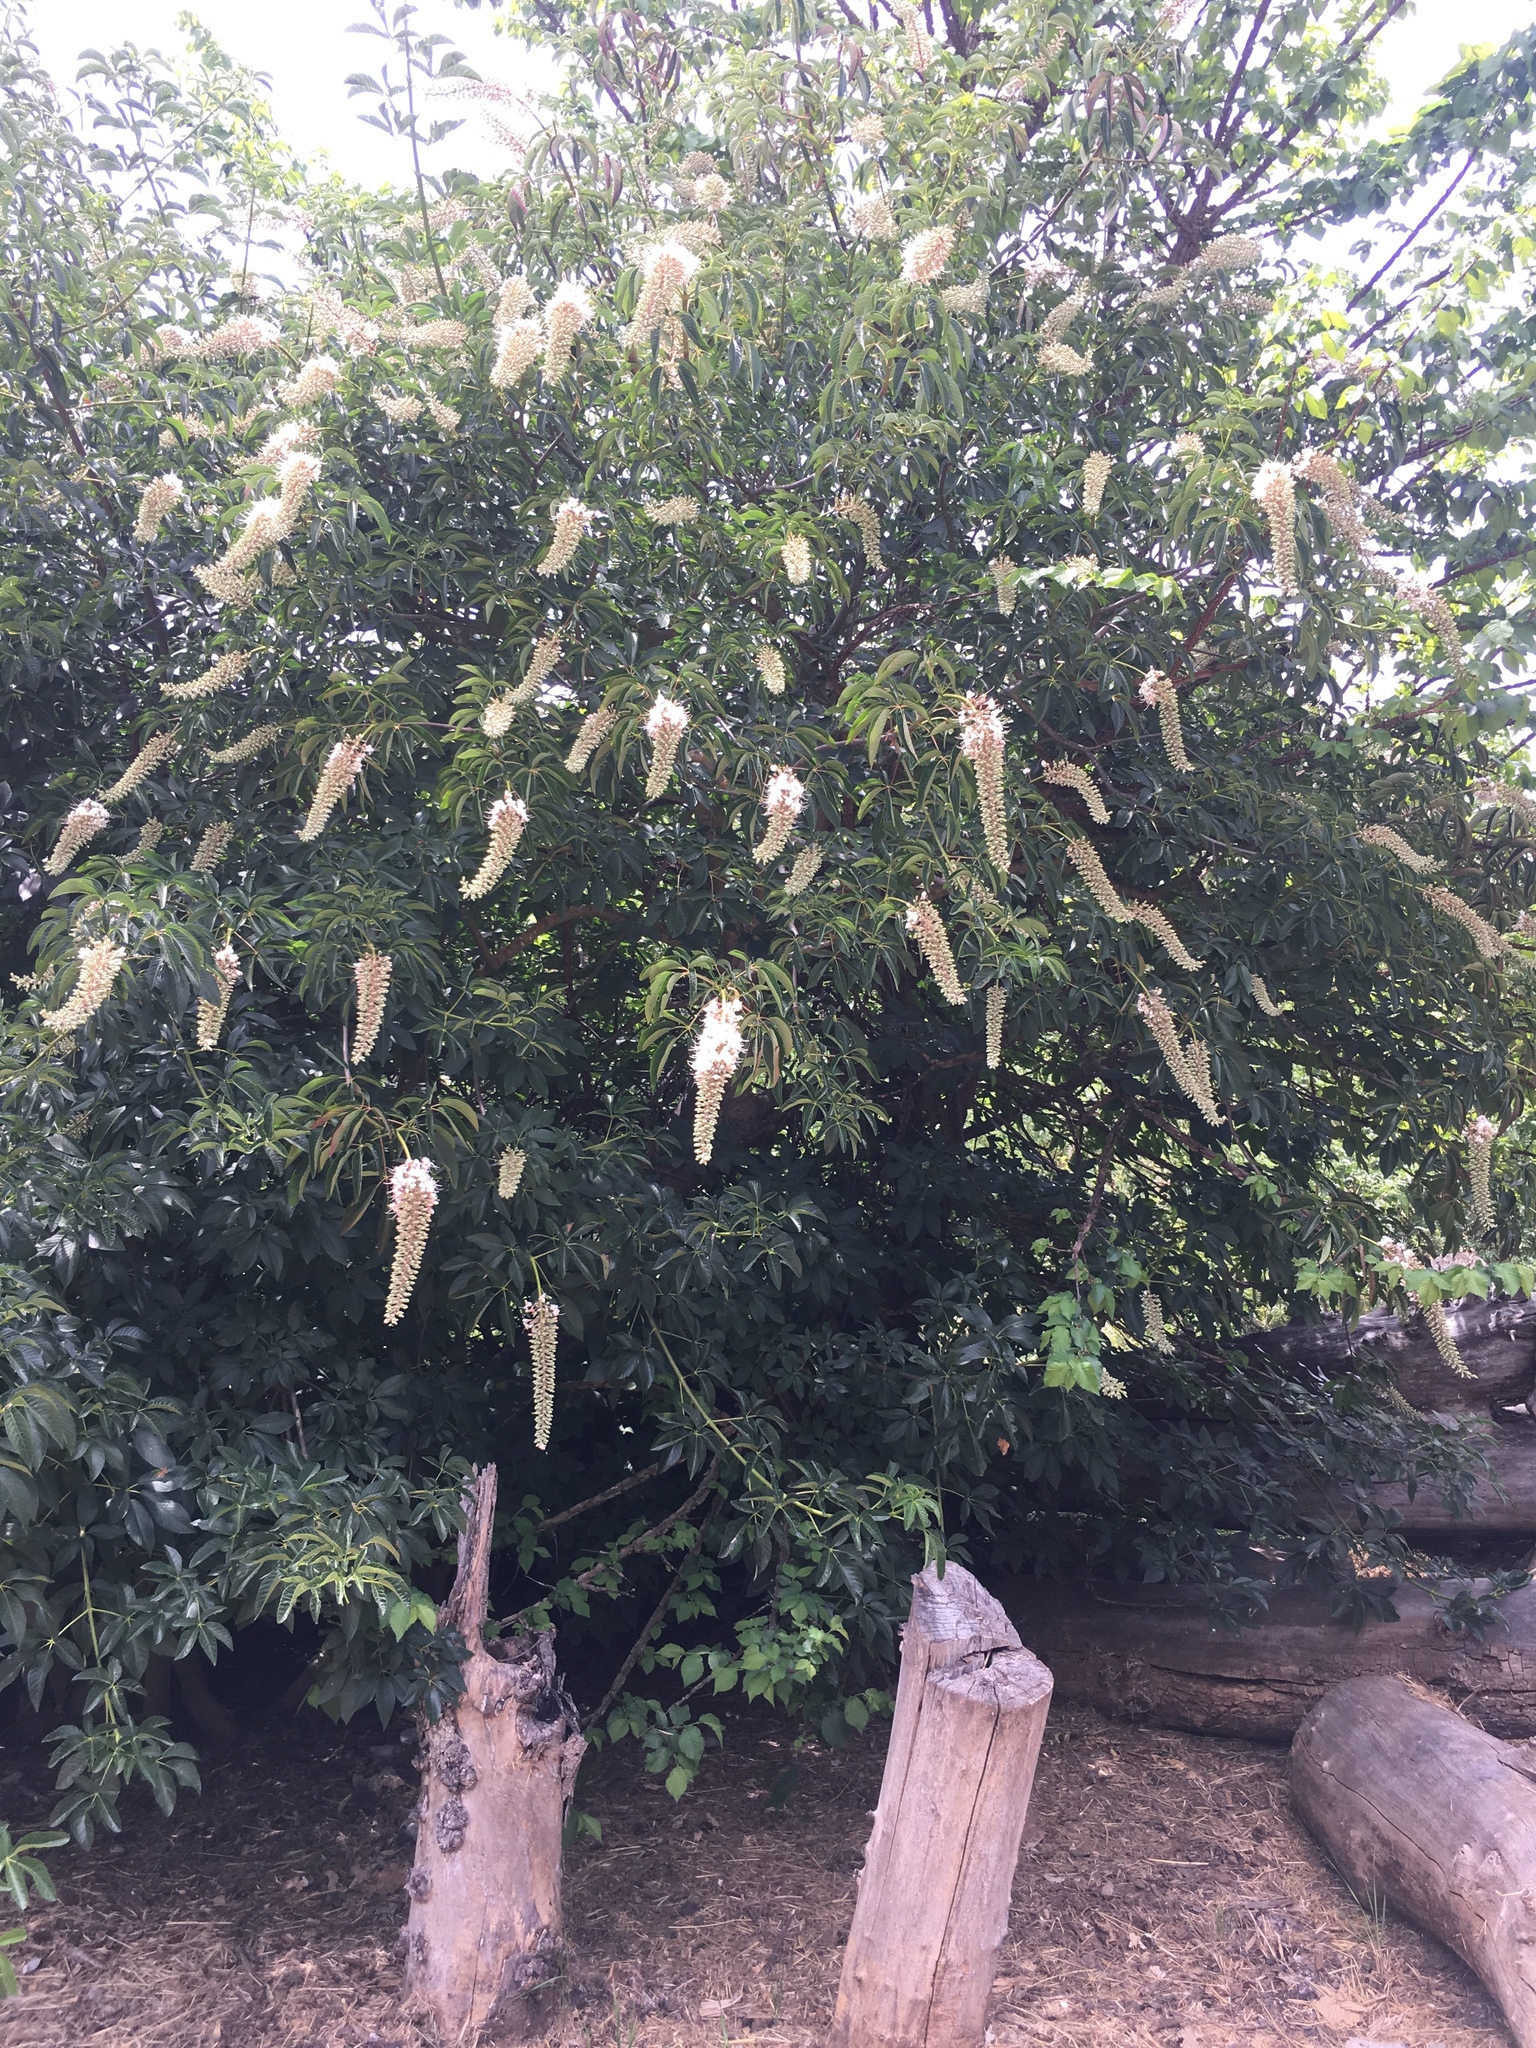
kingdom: Plantae
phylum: Tracheophyta
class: Magnoliopsida
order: Sapindales
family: Sapindaceae
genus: Aesculus
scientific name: Aesculus californica
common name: California buckeye
